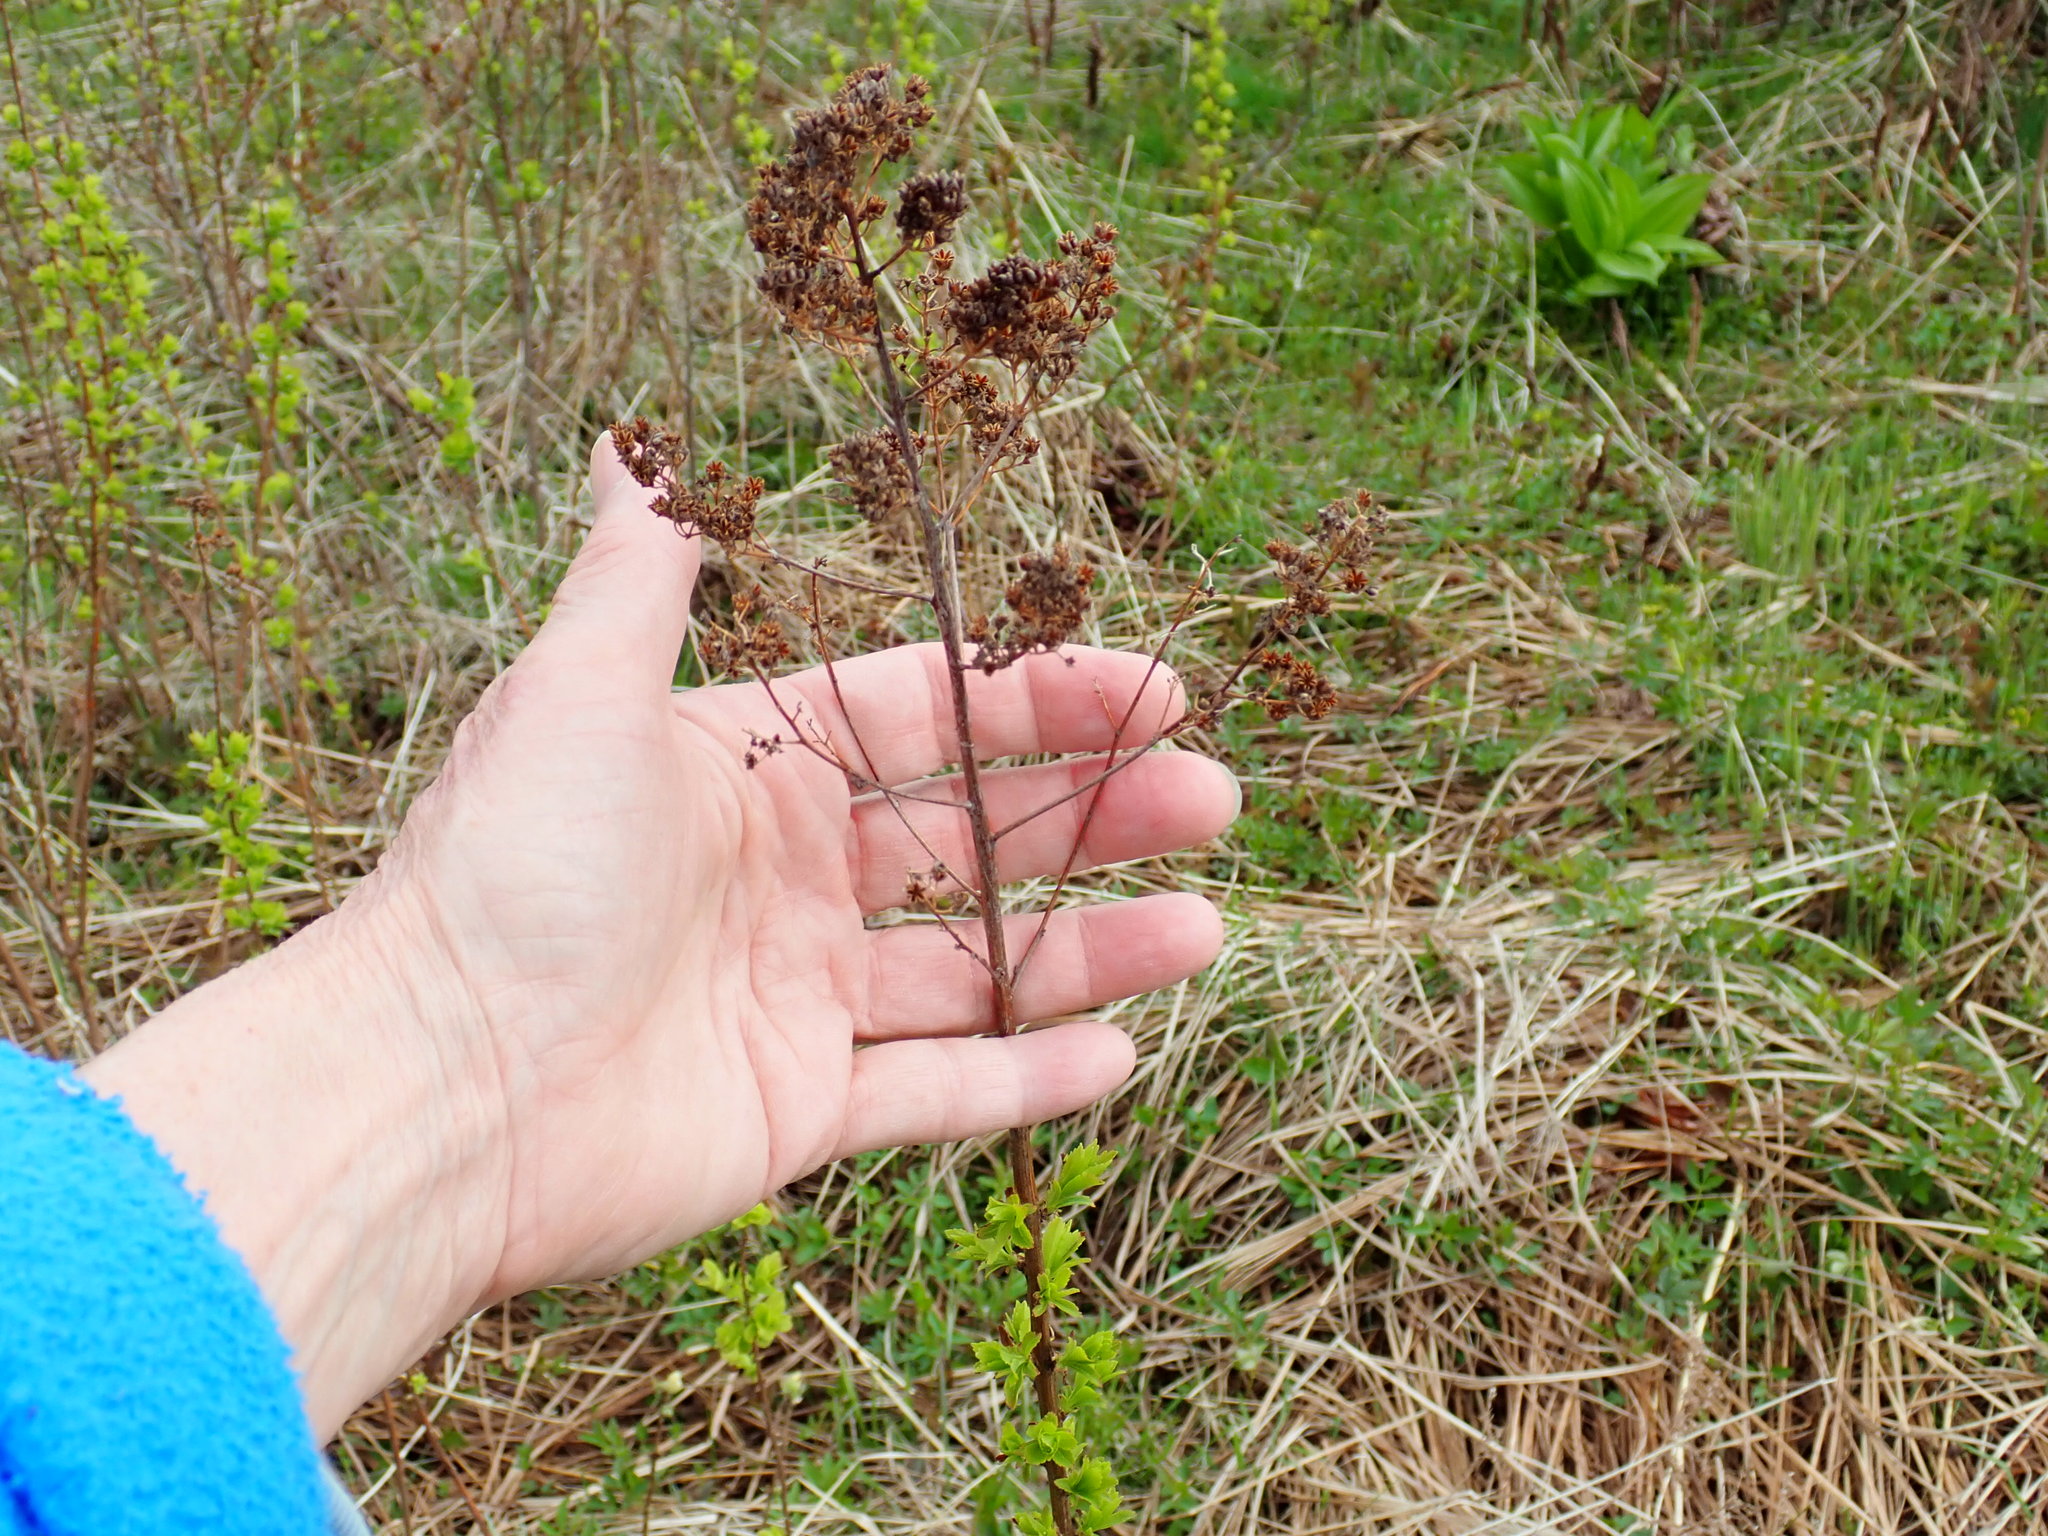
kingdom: Plantae
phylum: Tracheophyta
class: Magnoliopsida
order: Rosales
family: Rosaceae
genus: Spiraea
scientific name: Spiraea alba
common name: Pale bridewort
